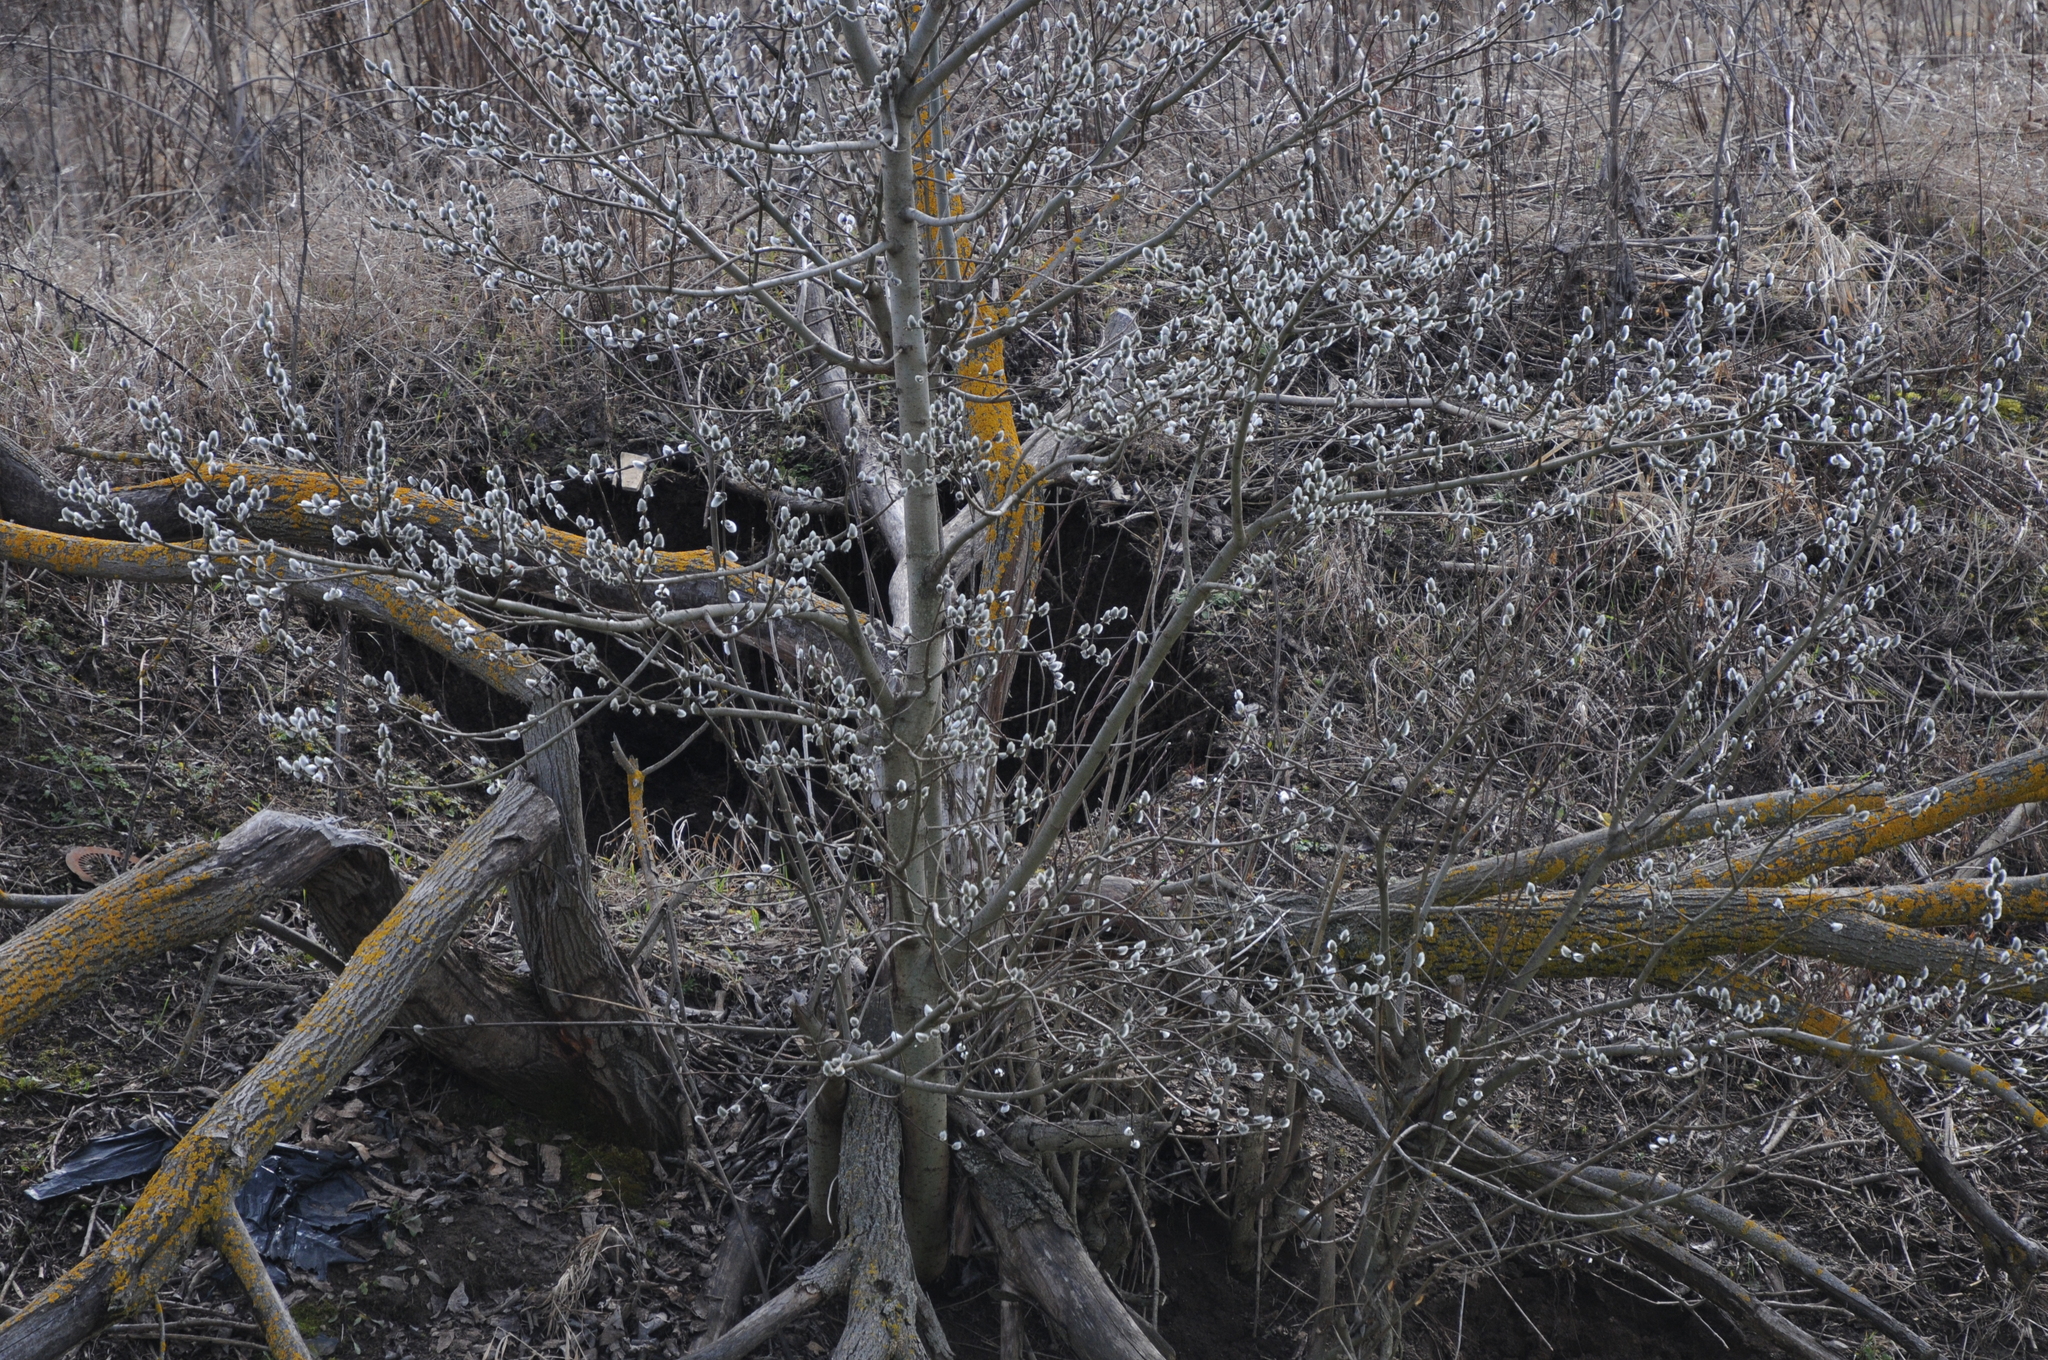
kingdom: Plantae
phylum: Tracheophyta
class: Magnoliopsida
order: Malpighiales
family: Salicaceae
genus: Salix
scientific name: Salix caprea
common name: Goat willow
